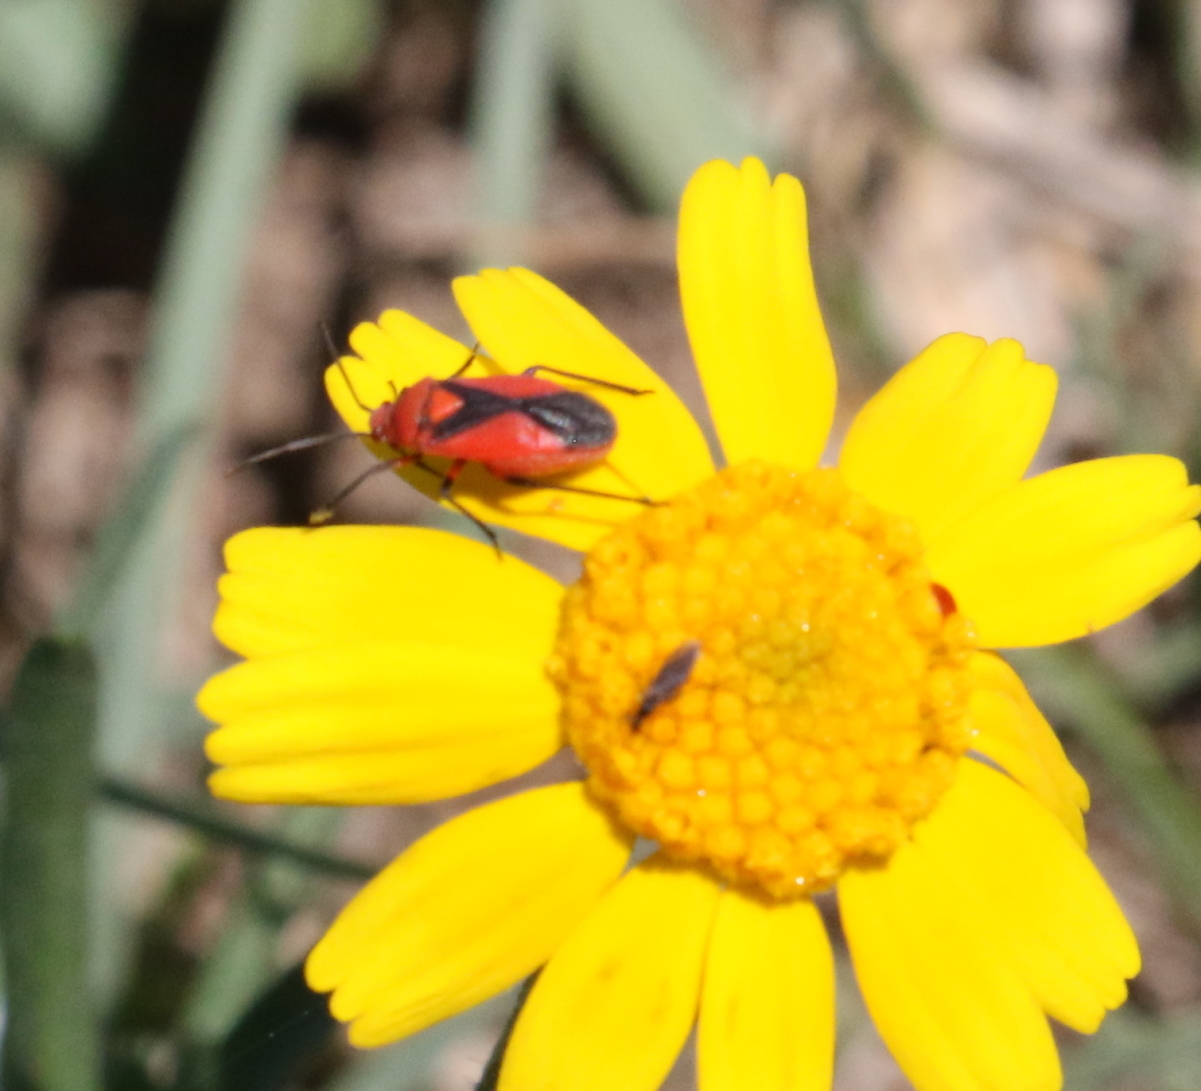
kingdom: Animalia
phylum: Arthropoda
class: Insecta
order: Hemiptera
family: Miridae
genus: Oncerometopus
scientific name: Oncerometopus nigriclavus
